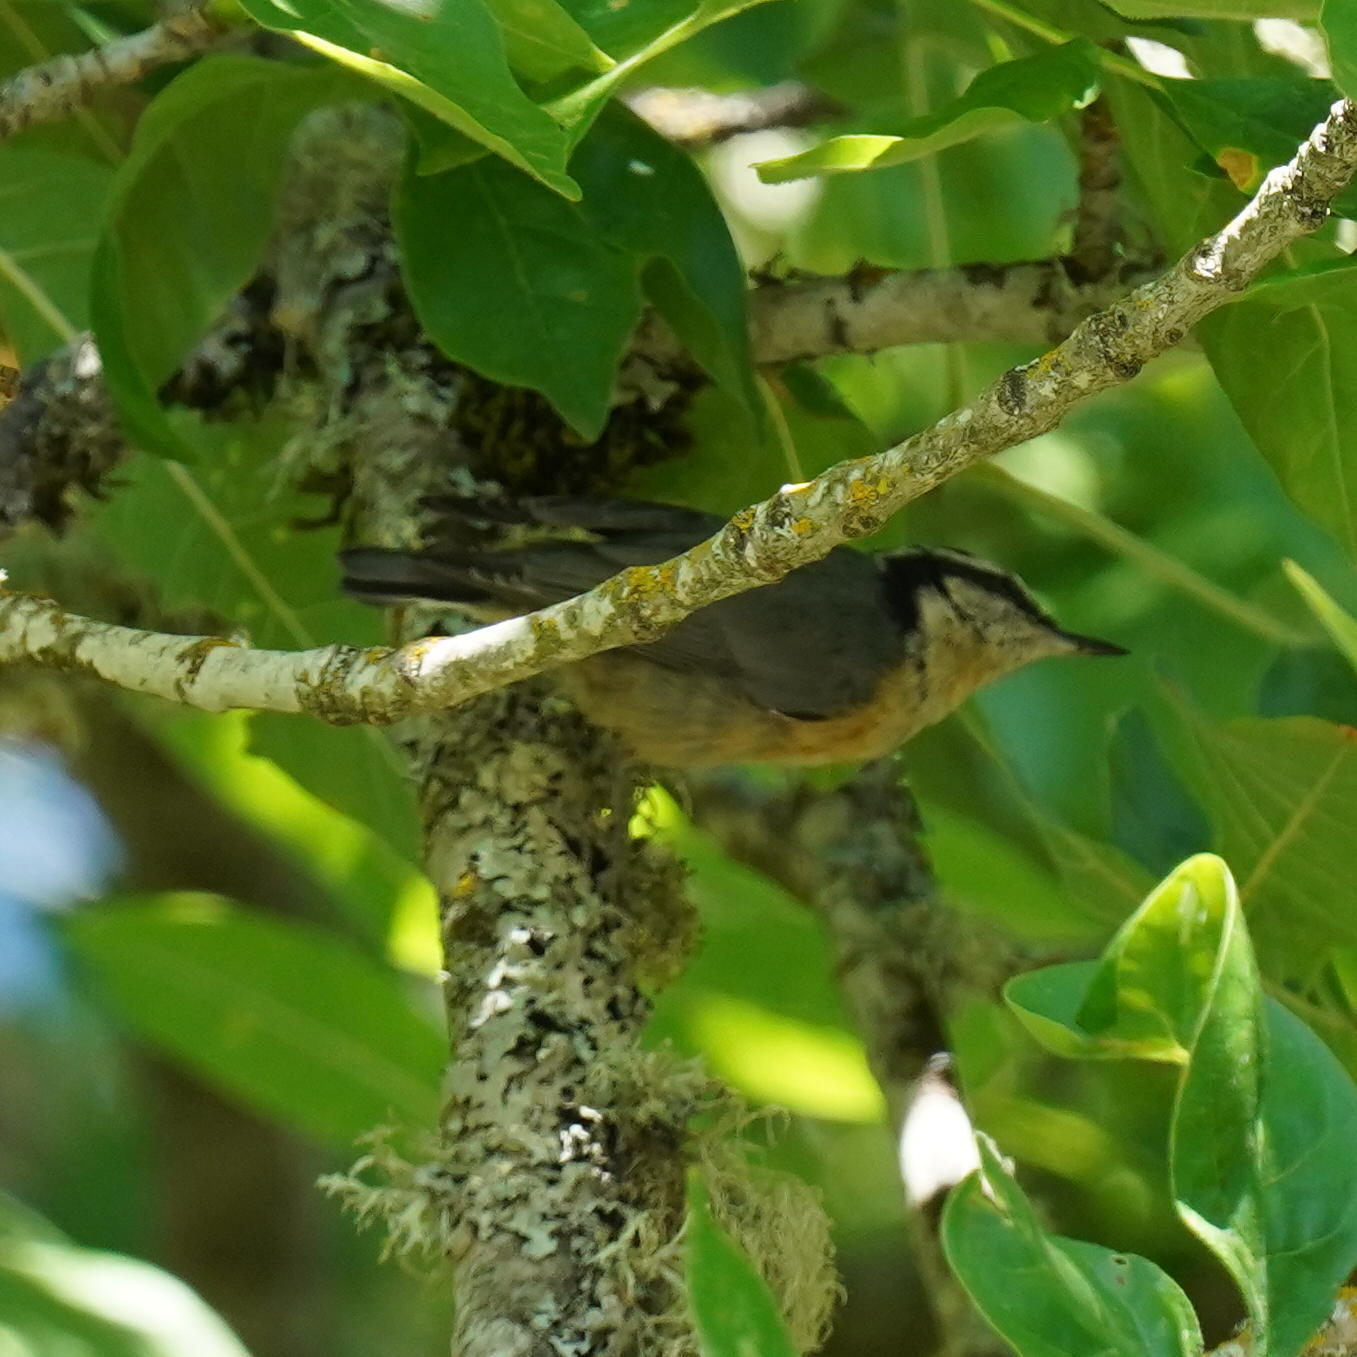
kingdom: Animalia
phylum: Chordata
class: Aves
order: Passeriformes
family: Sittidae
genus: Sitta
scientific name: Sitta canadensis
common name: Red-breasted nuthatch
